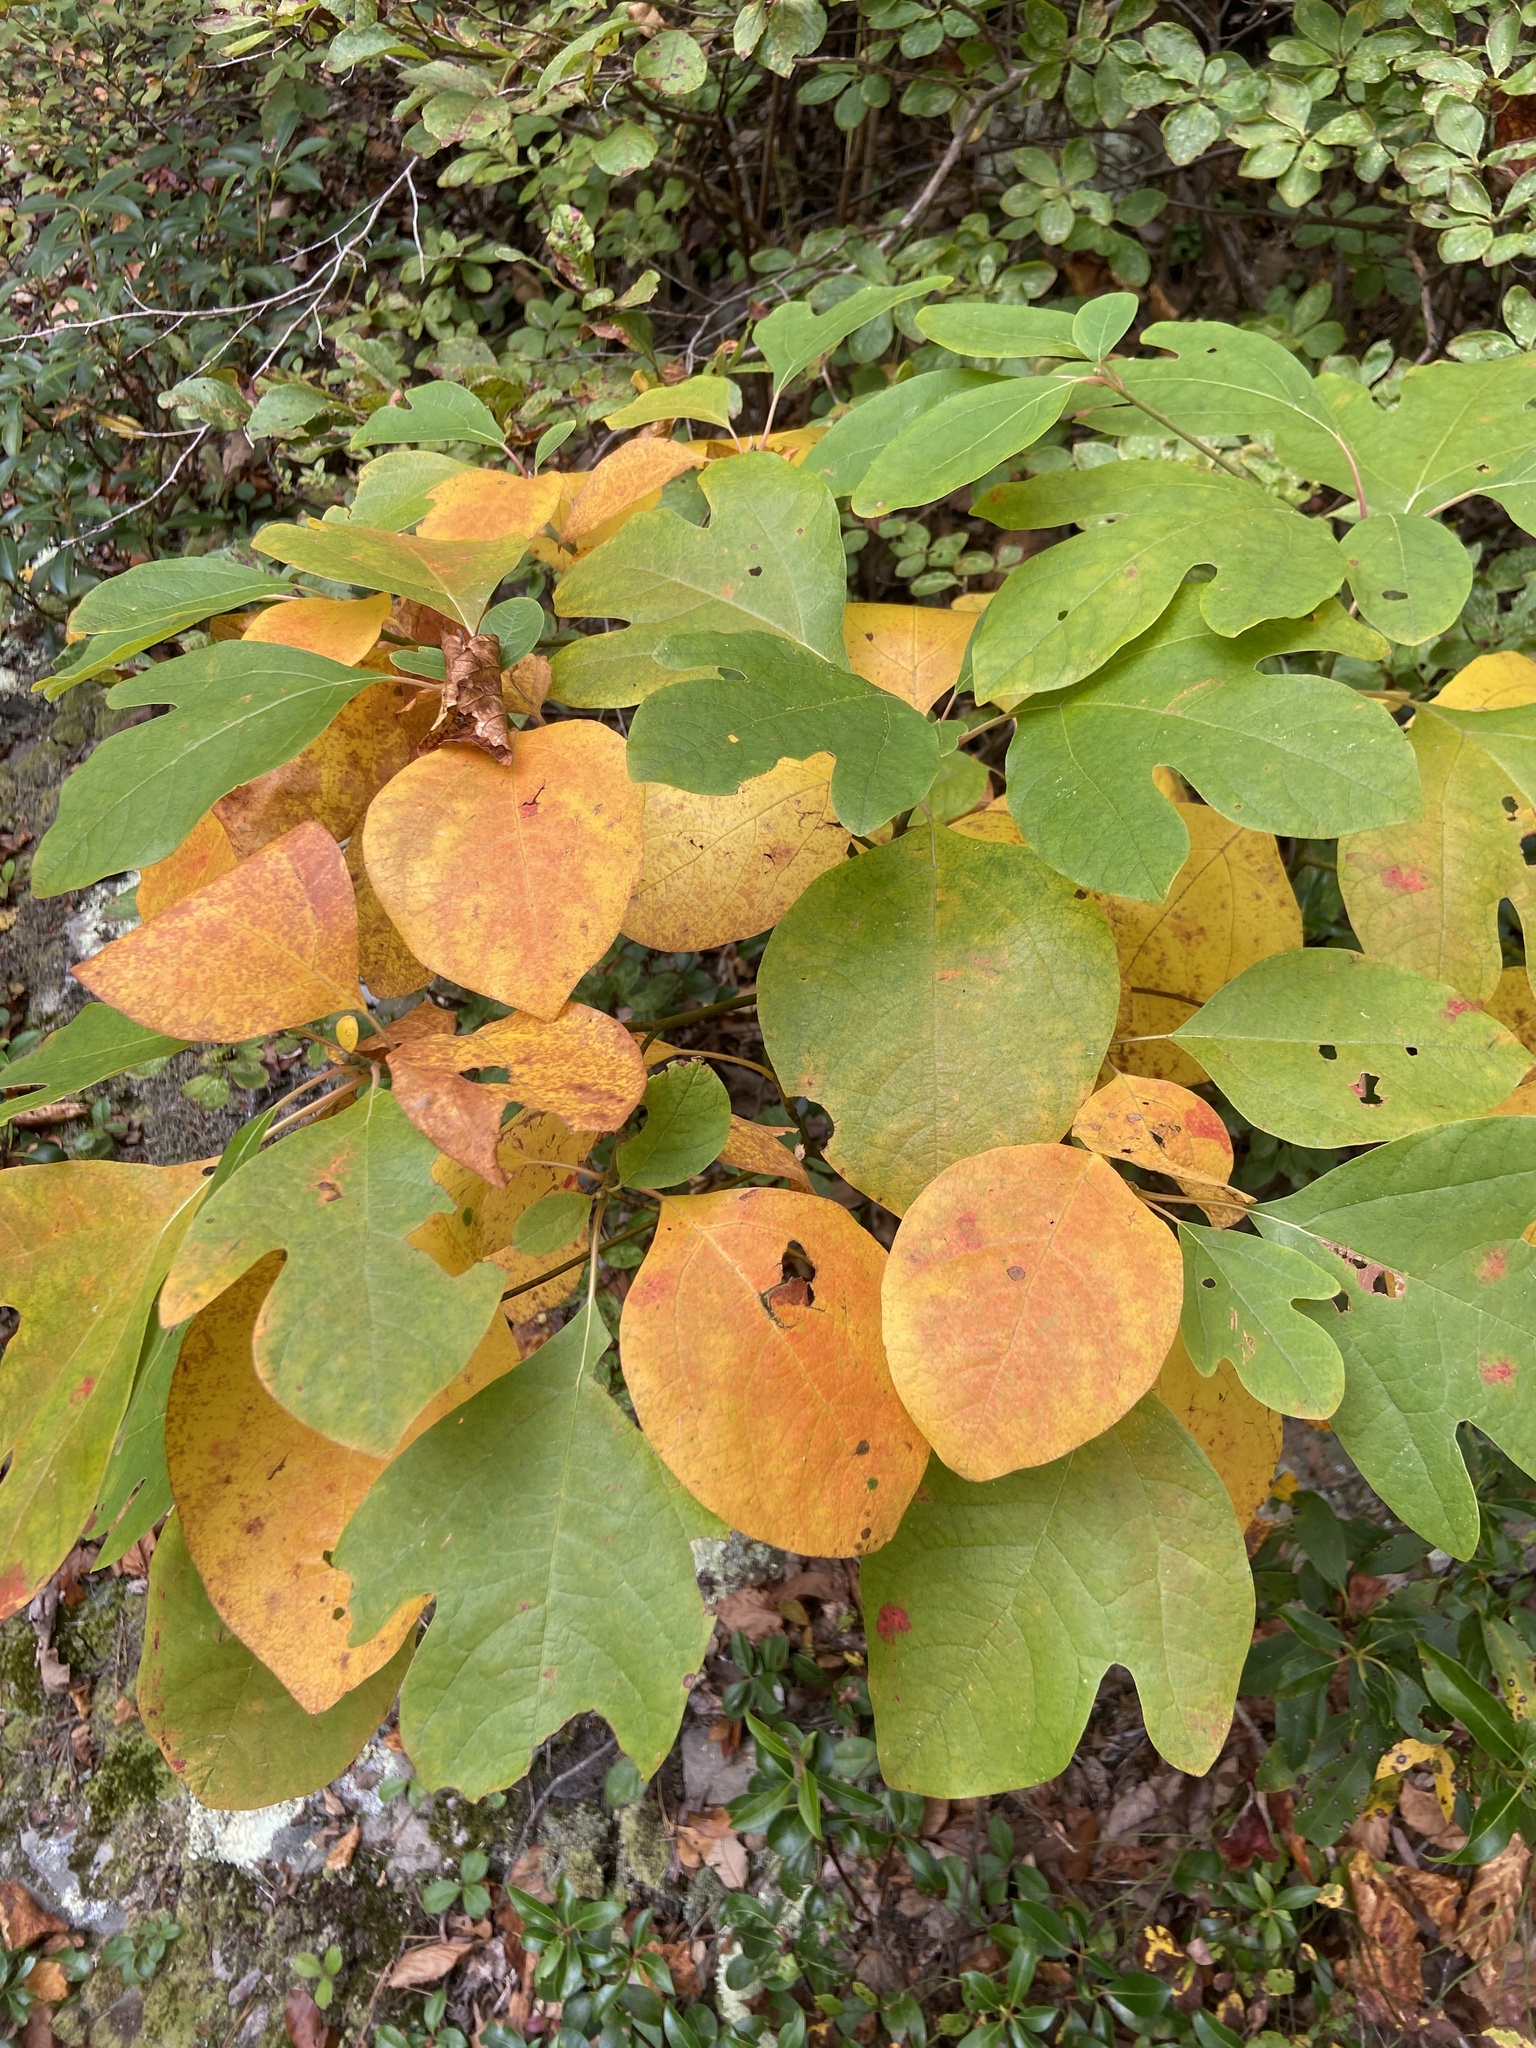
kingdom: Plantae
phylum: Tracheophyta
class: Magnoliopsida
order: Laurales
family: Lauraceae
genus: Sassafras
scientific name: Sassafras albidum
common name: Sassafras
